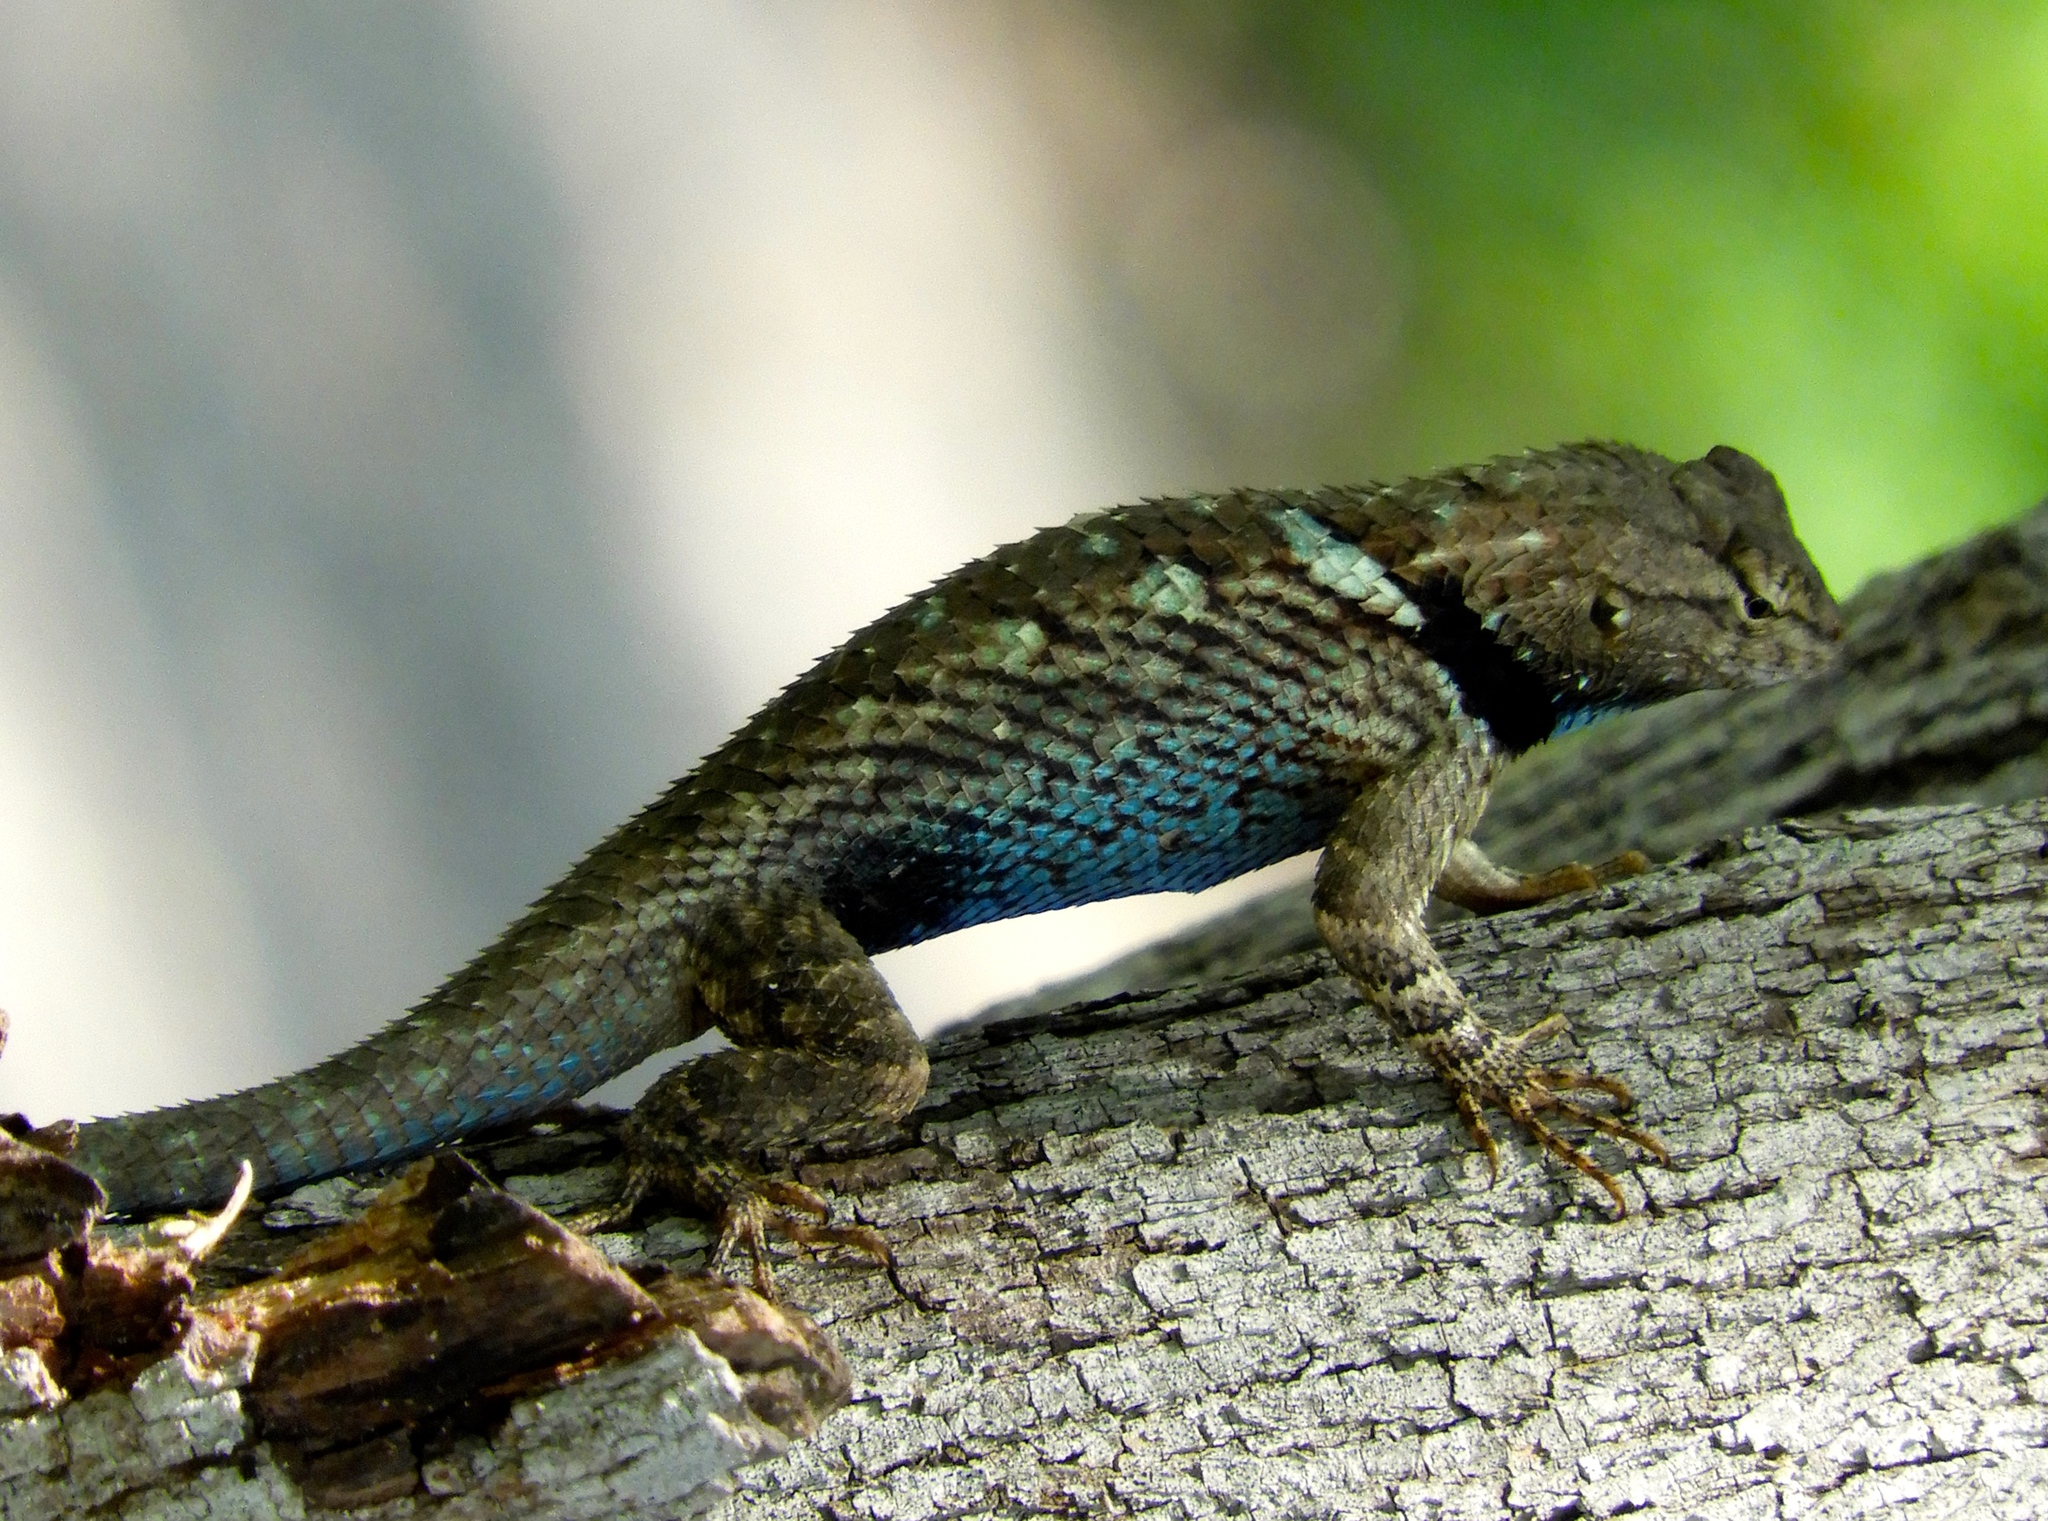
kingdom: Animalia
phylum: Chordata
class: Squamata
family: Phrynosomatidae
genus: Sceloporus
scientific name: Sceloporus clarkii
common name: Clark's spiny lizard
